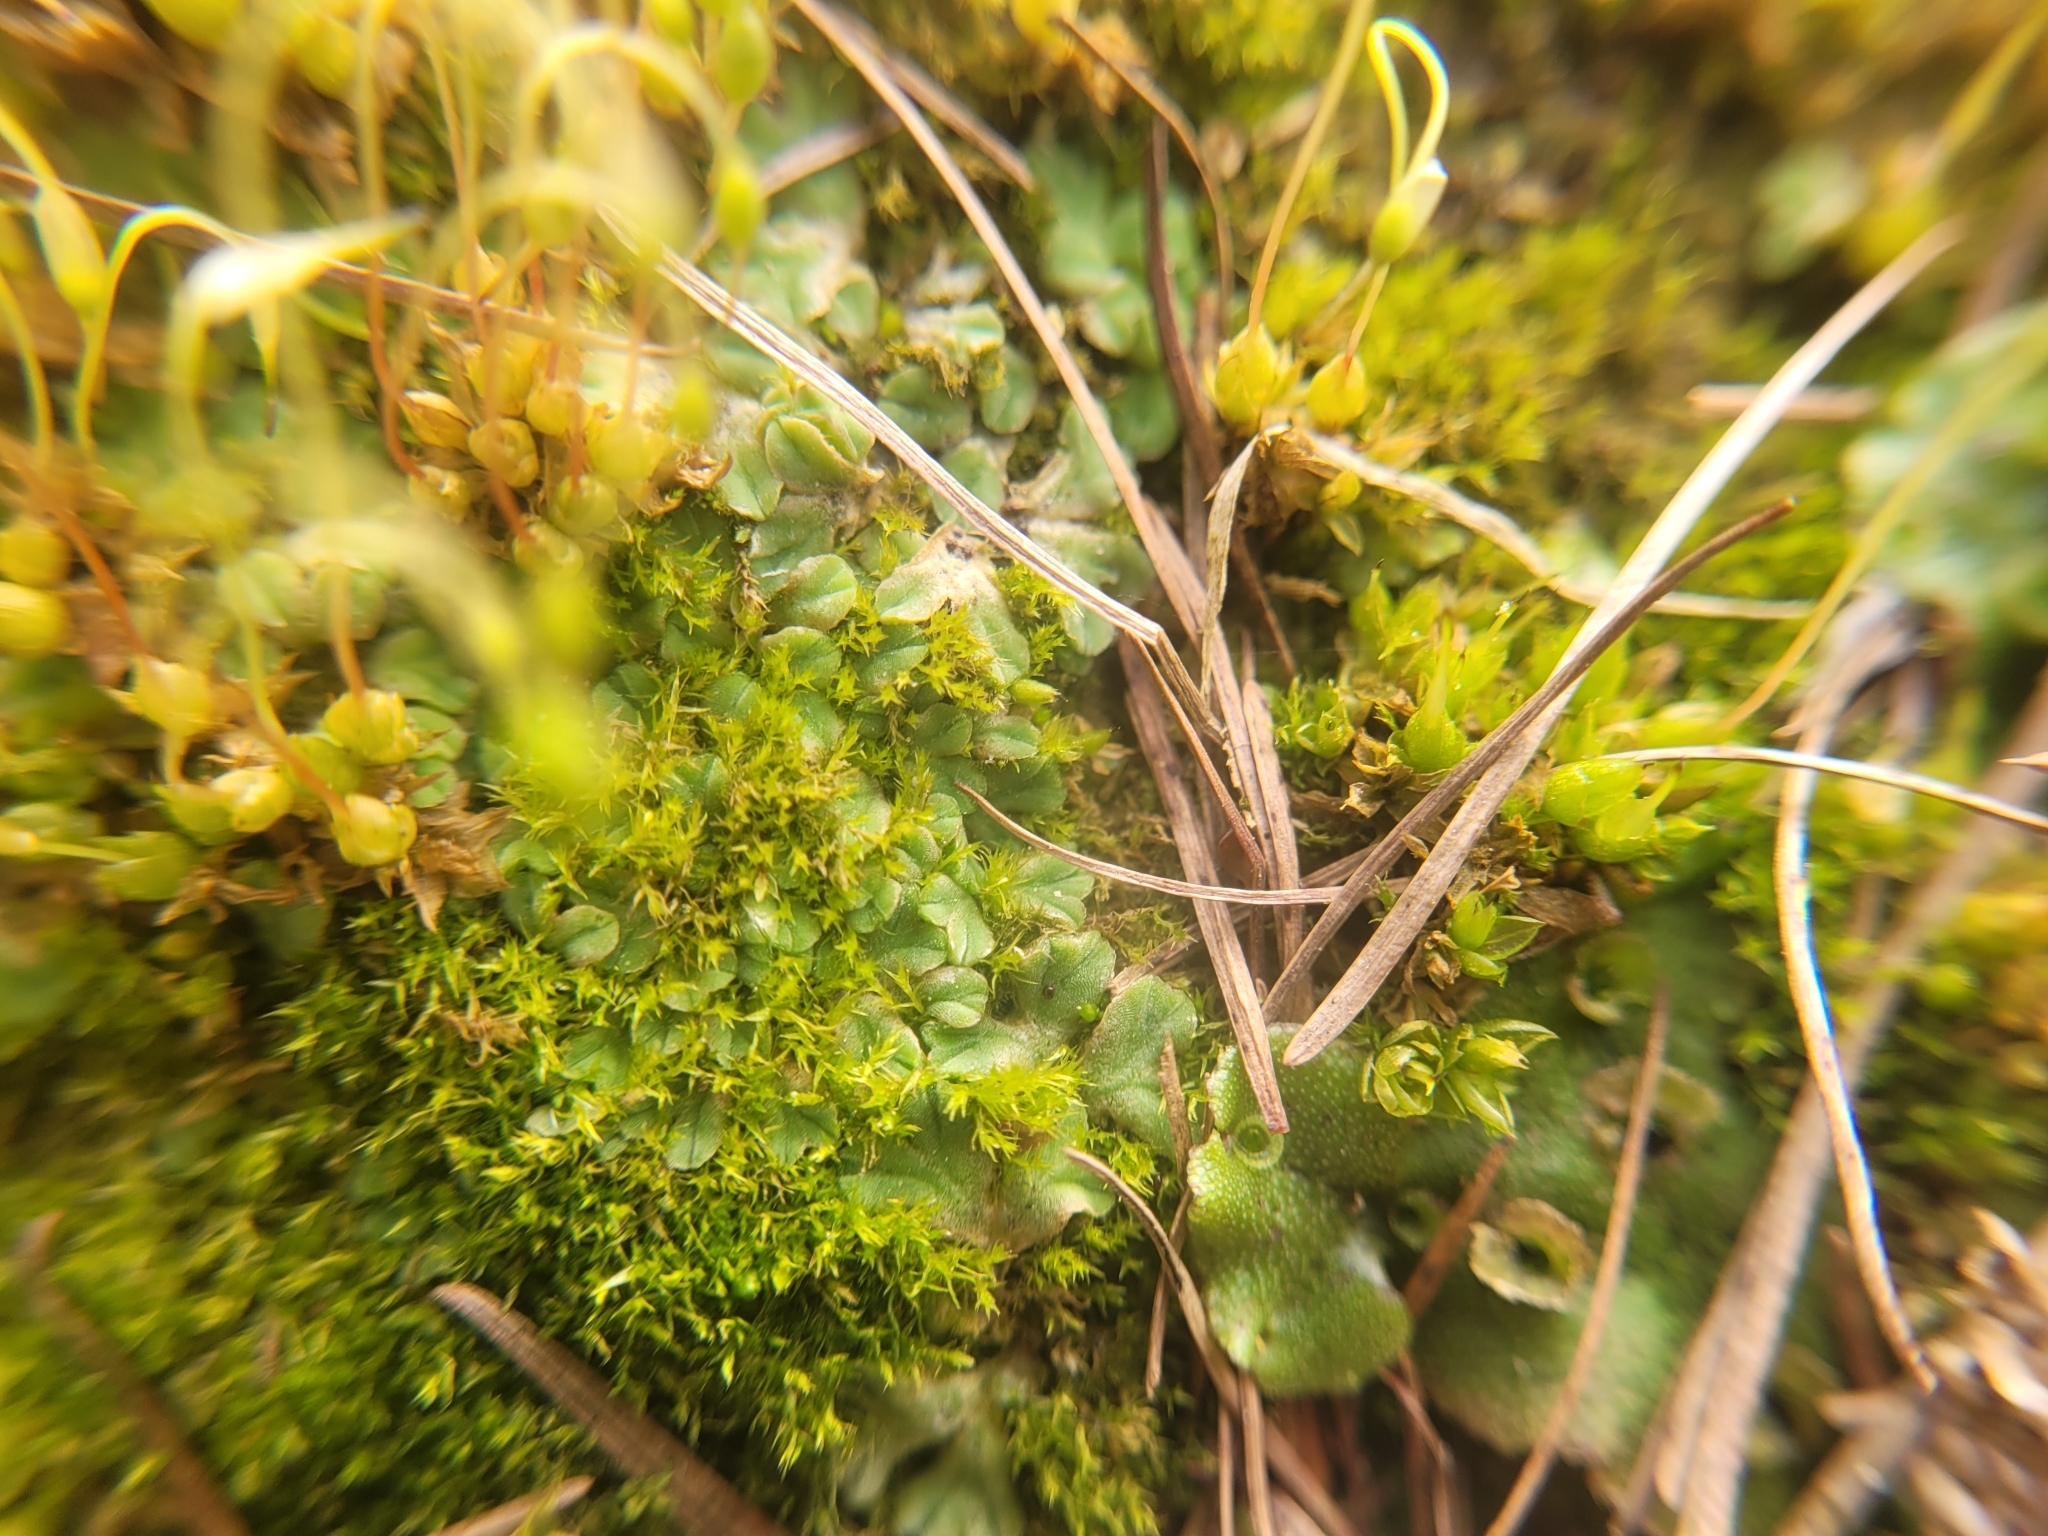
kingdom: Plantae
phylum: Marchantiophyta
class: Marchantiopsida
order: Marchantiales
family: Marchantiaceae
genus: Marchantia
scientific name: Marchantia polymorpha
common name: Common liverwort
